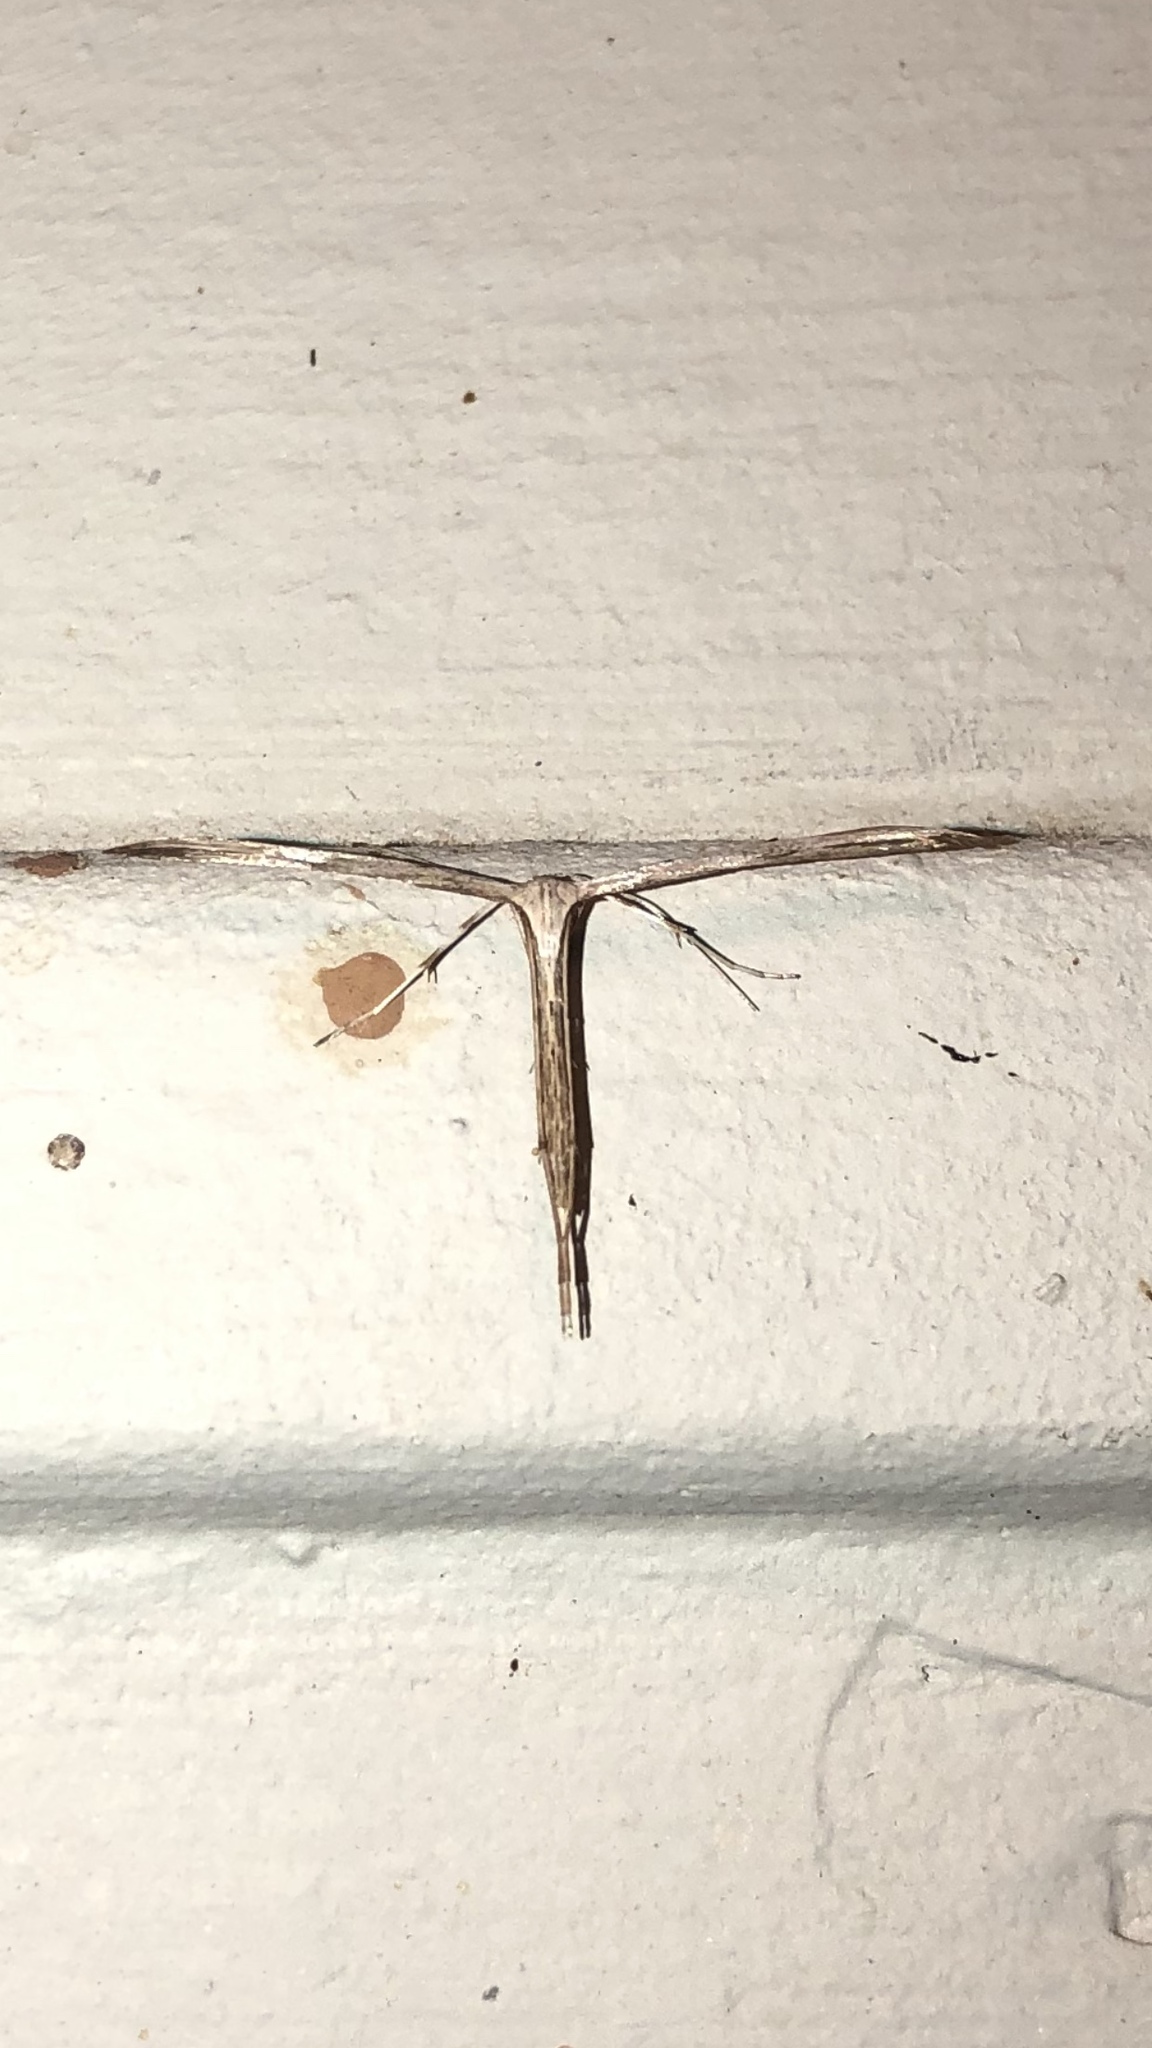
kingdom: Animalia
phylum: Arthropoda
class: Insecta
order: Lepidoptera
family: Pterophoridae
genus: Emmelina
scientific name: Emmelina monodactyla
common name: Common plume
